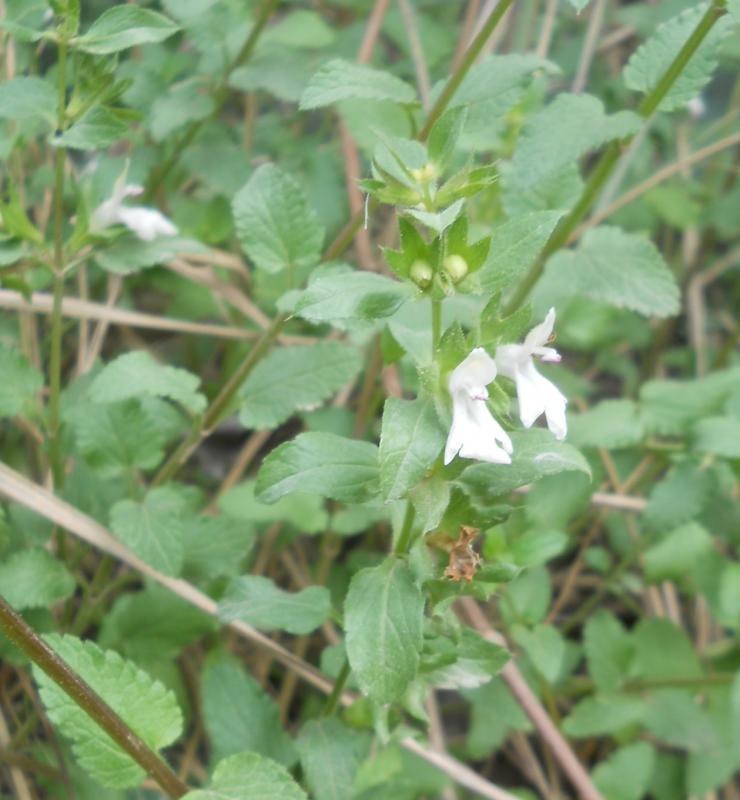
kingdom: Plantae
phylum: Tracheophyta
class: Magnoliopsida
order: Lamiales
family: Lamiaceae
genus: Prasium
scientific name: Prasium majus
